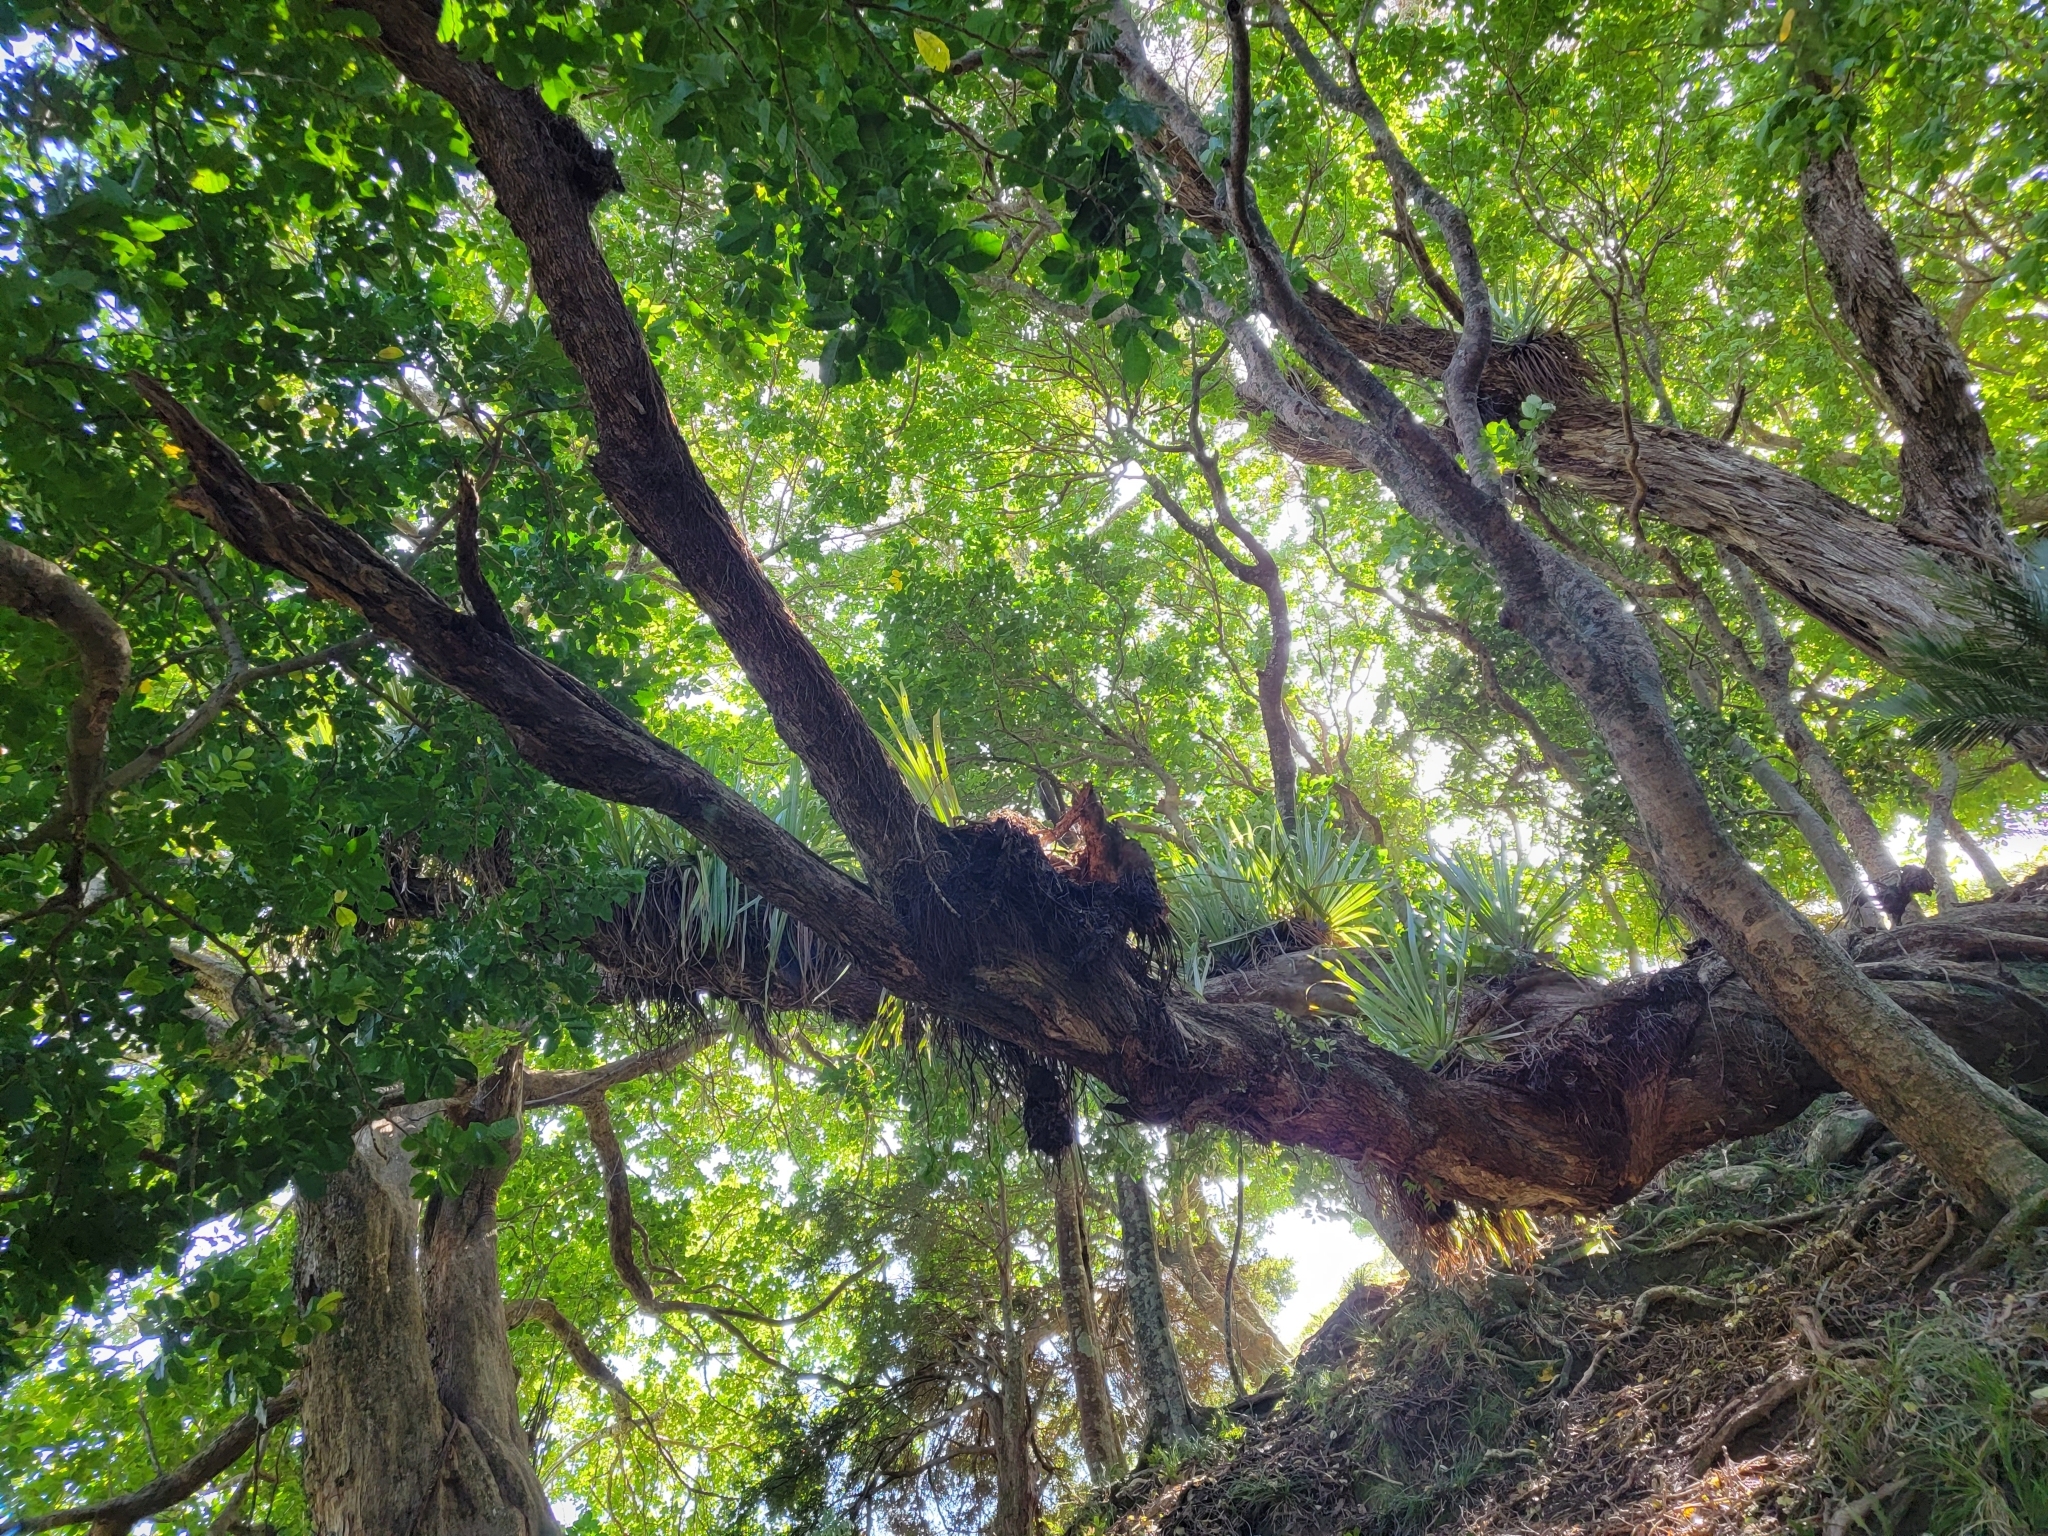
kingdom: Plantae
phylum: Tracheophyta
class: Liliopsida
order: Asparagales
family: Asteliaceae
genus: Astelia
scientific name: Astelia hastata
